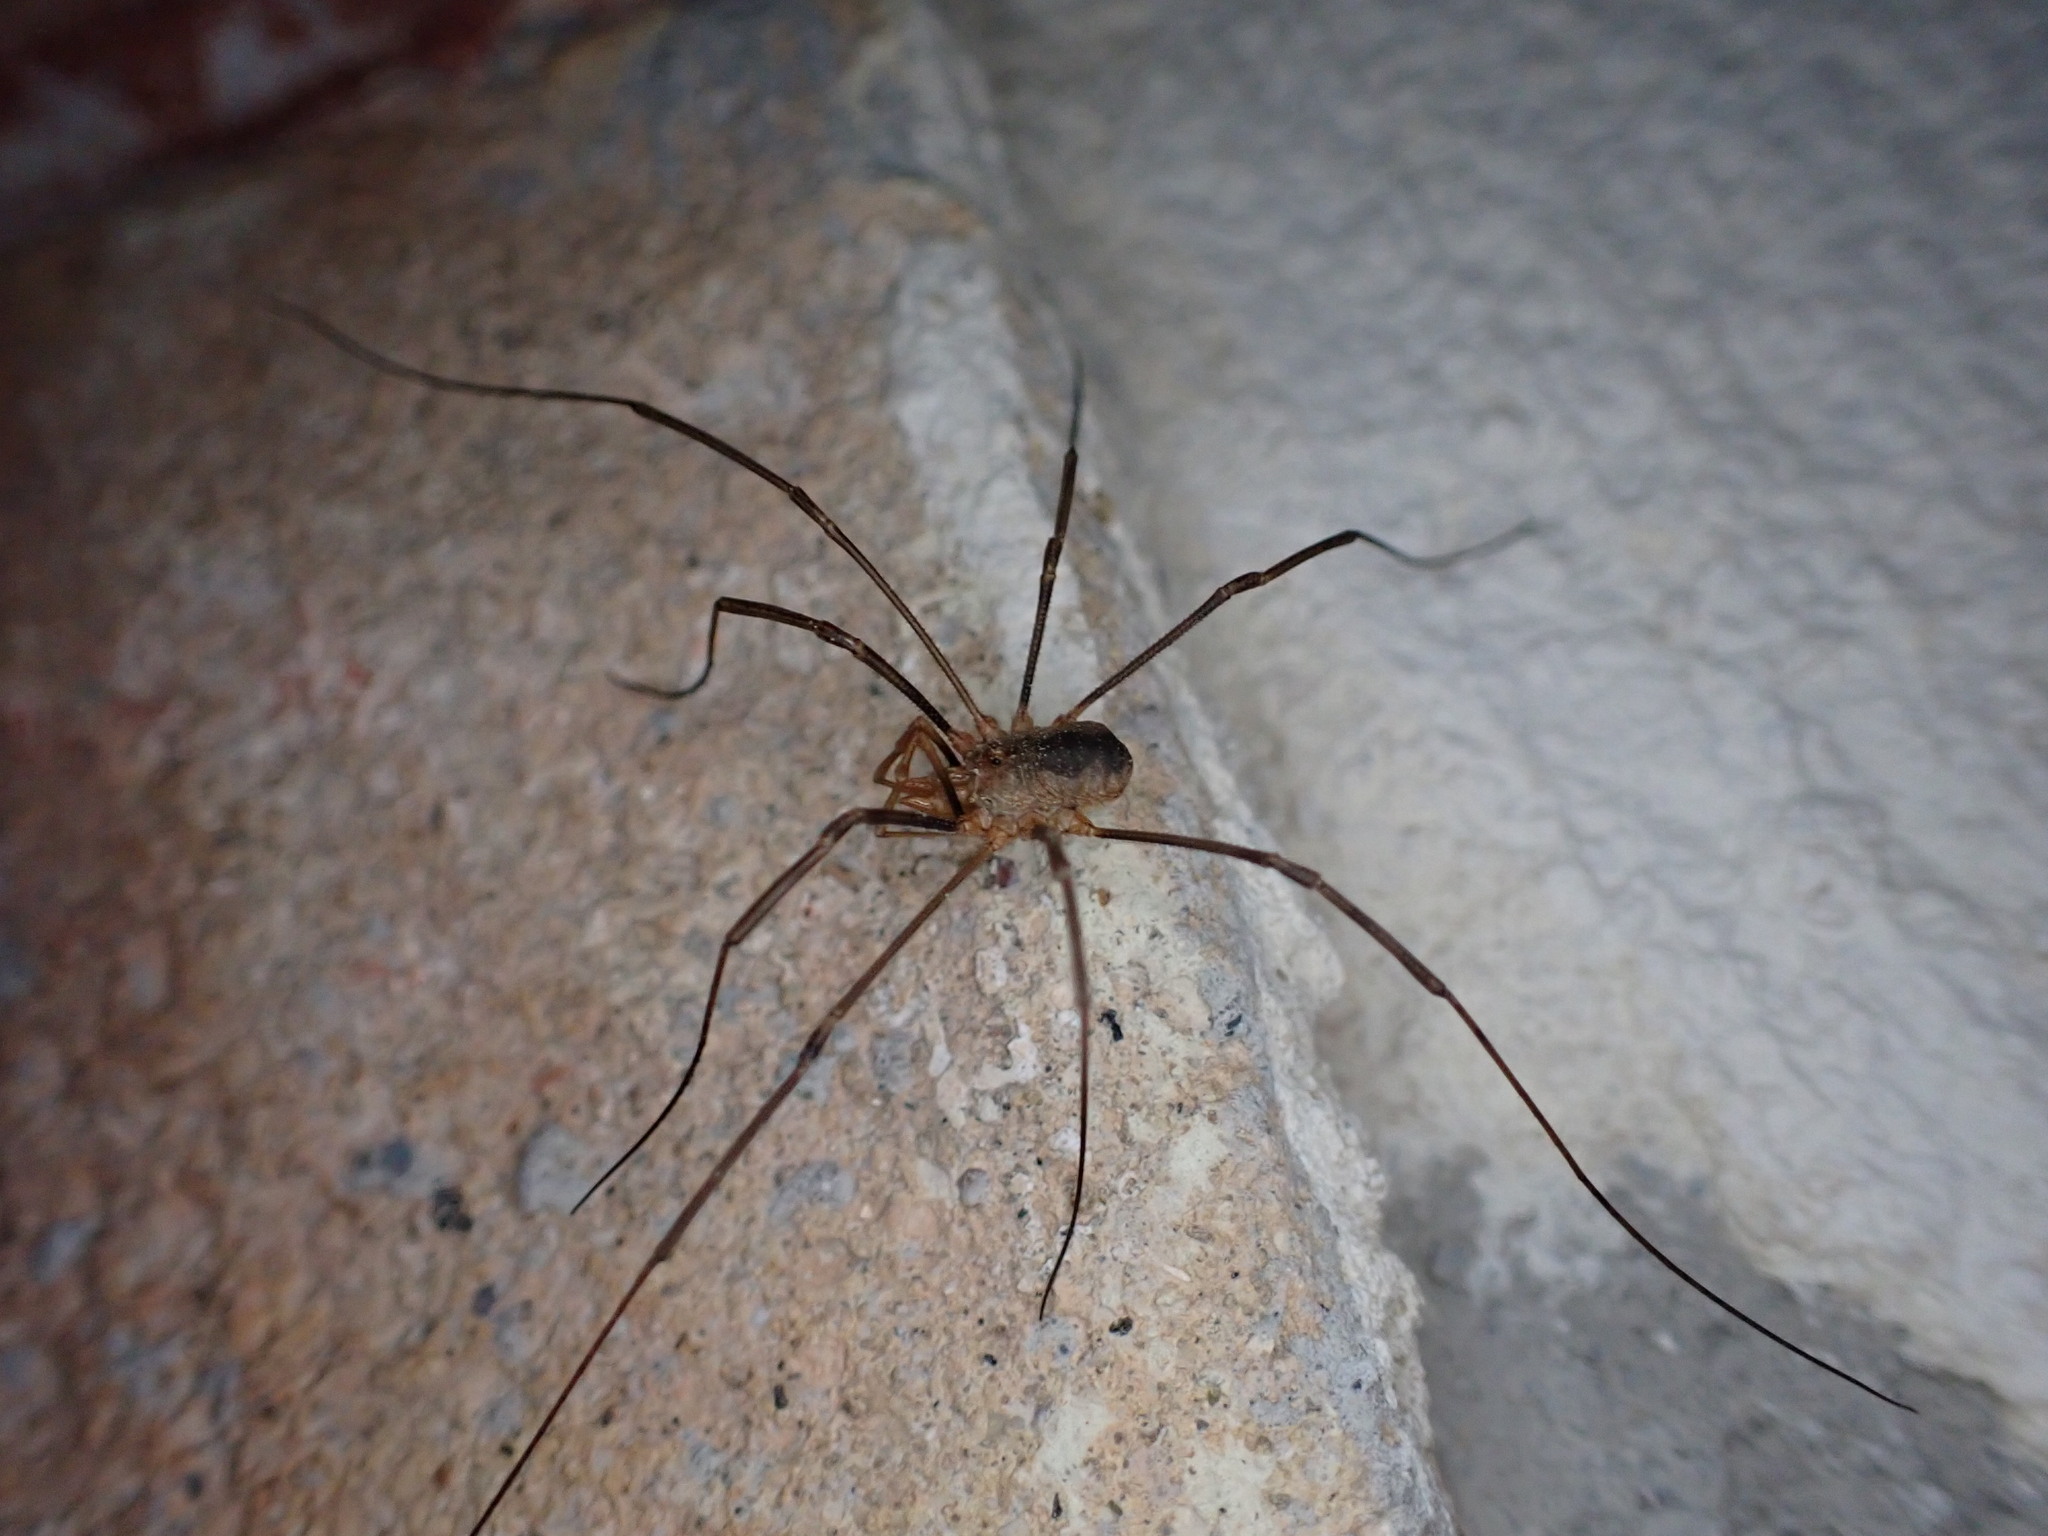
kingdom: Animalia
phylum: Arthropoda
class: Arachnida
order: Opiliones
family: Phalangiidae
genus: Phalangium
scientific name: Phalangium opilio
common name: Daddy longleg
